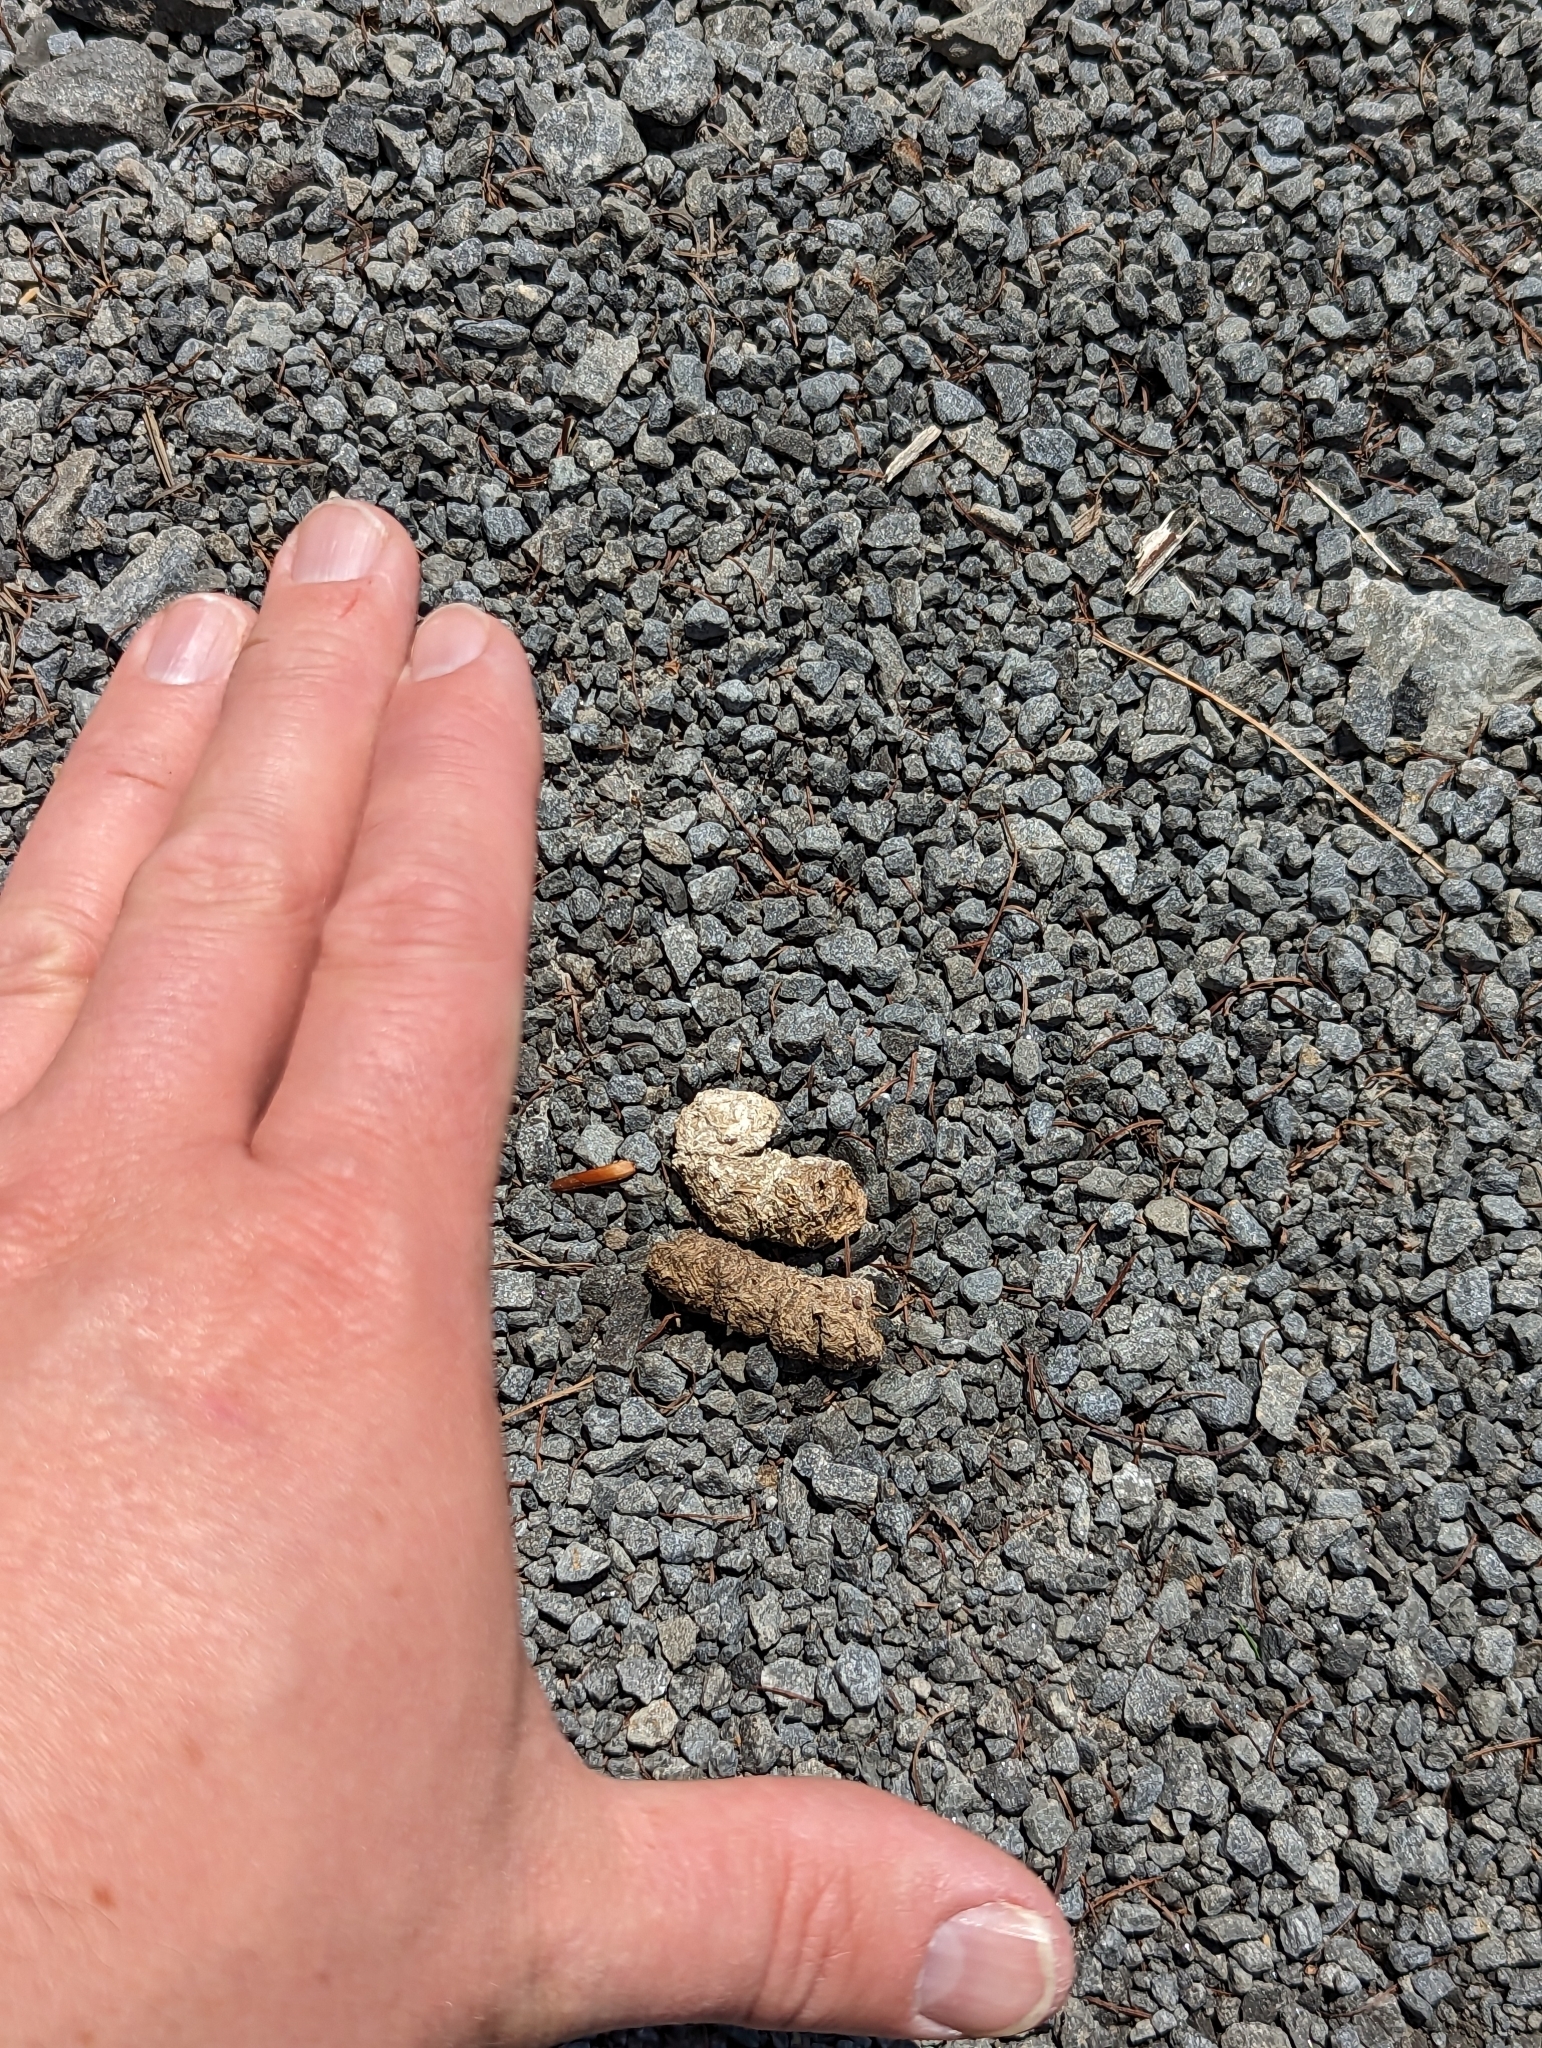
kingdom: Animalia
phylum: Chordata
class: Aves
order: Galliformes
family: Phasianidae
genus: Bonasa
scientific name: Bonasa umbellus
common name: Ruffed grouse
